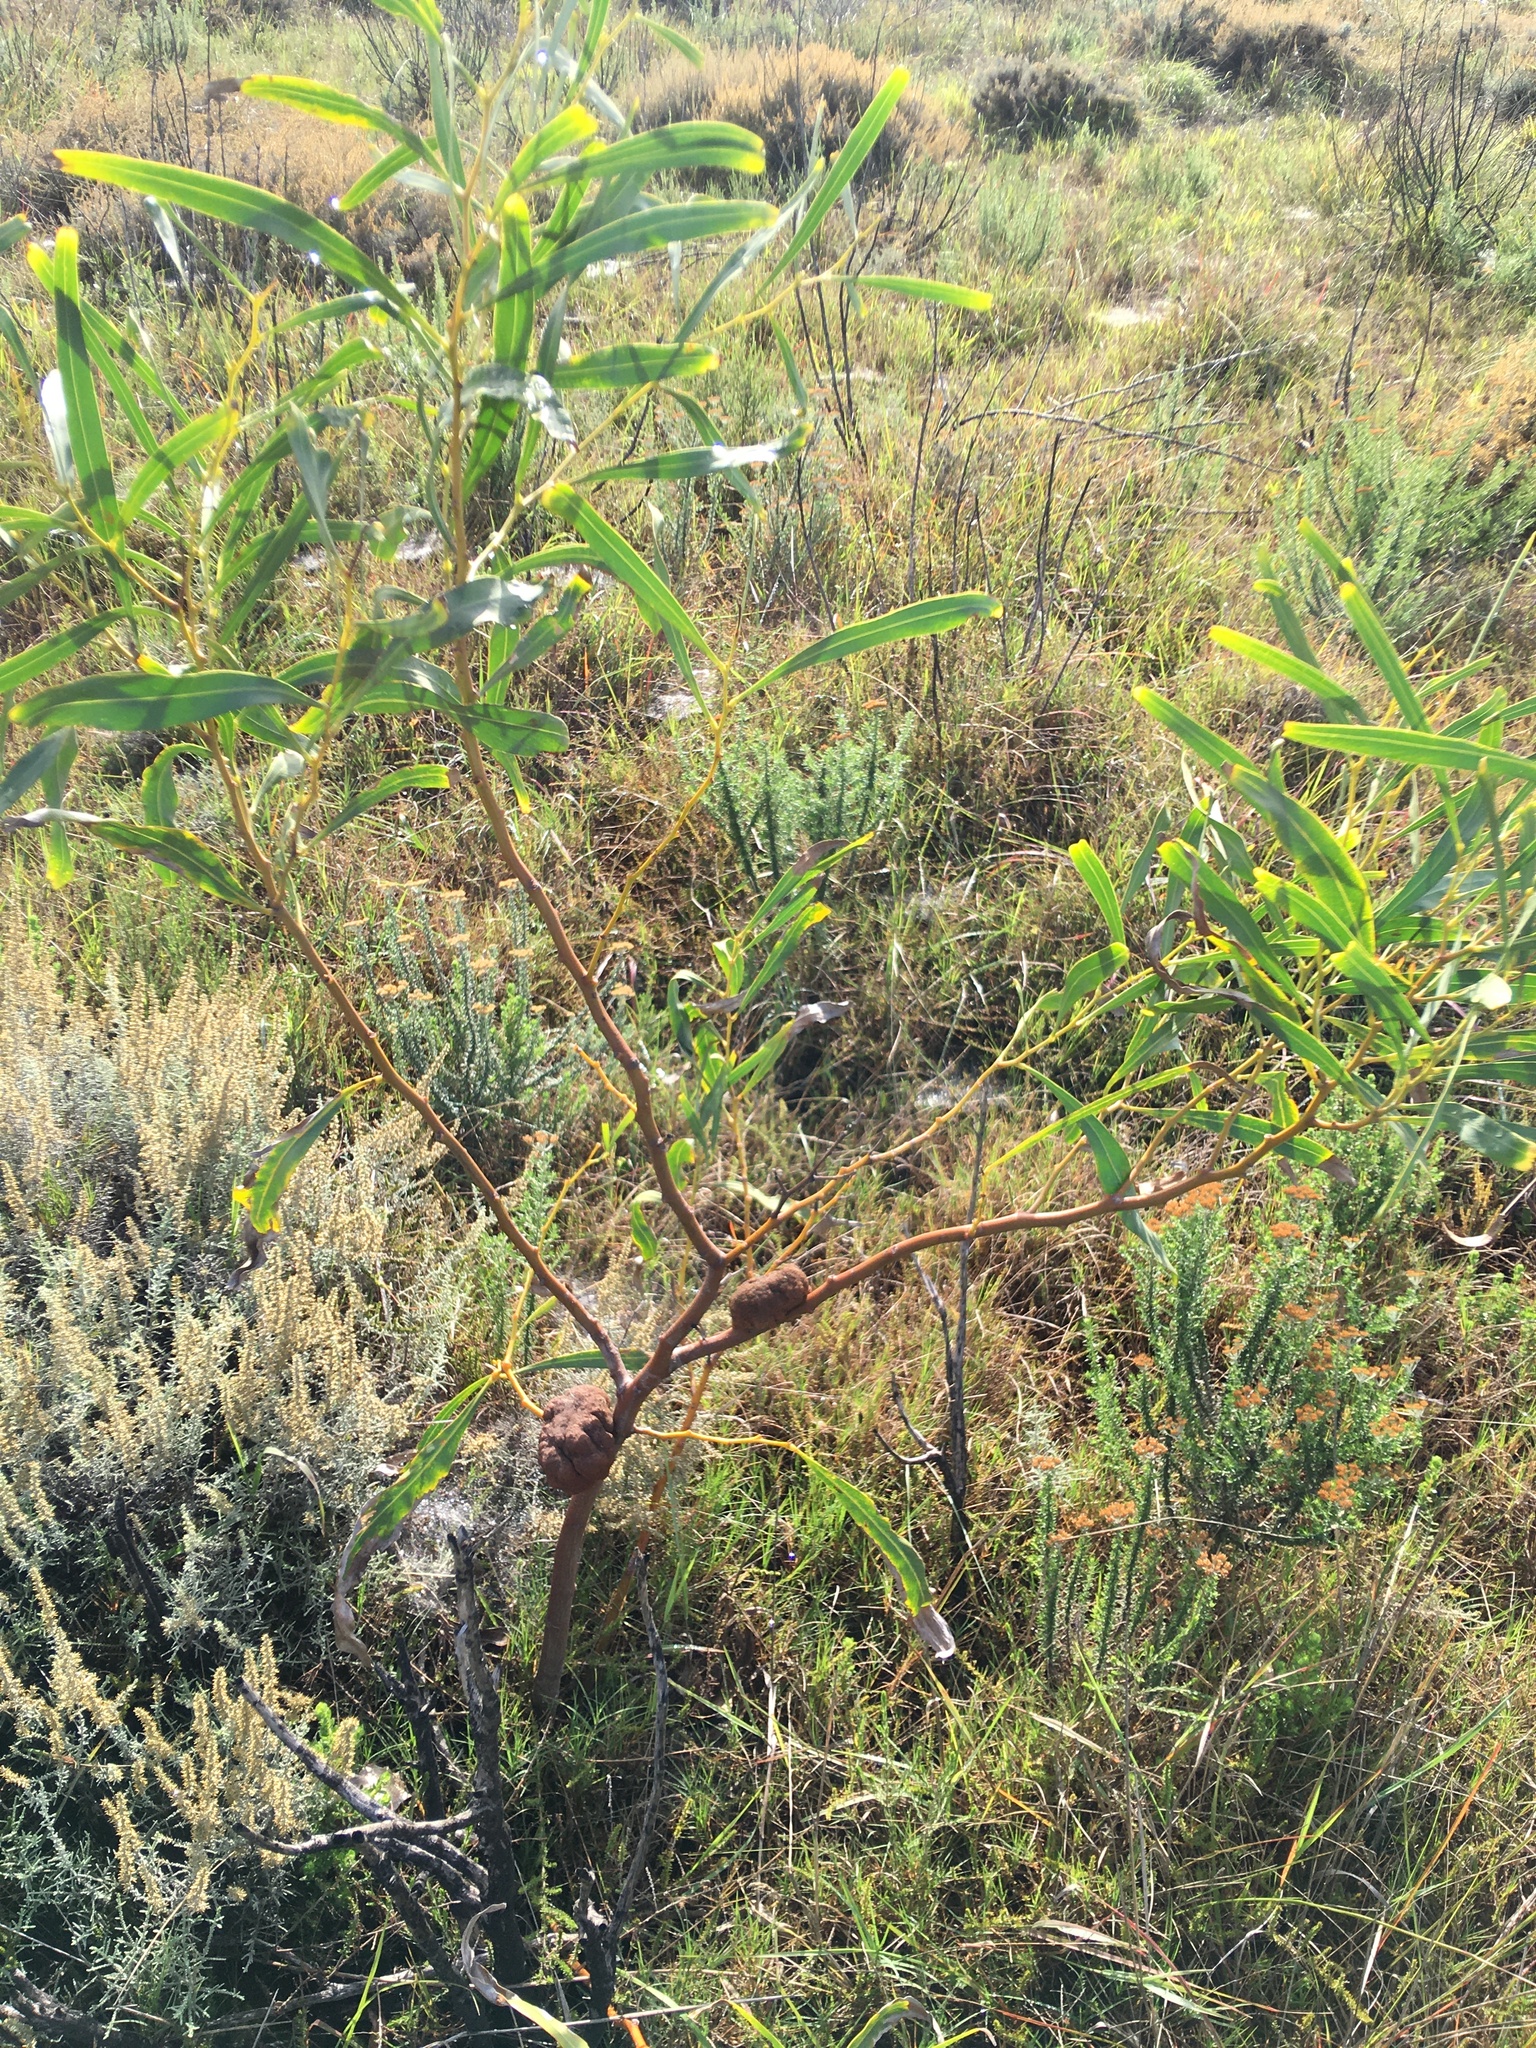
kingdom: Plantae
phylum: Tracheophyta
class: Magnoliopsida
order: Fabales
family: Fabaceae
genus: Acacia
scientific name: Acacia saligna
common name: Orange wattle
